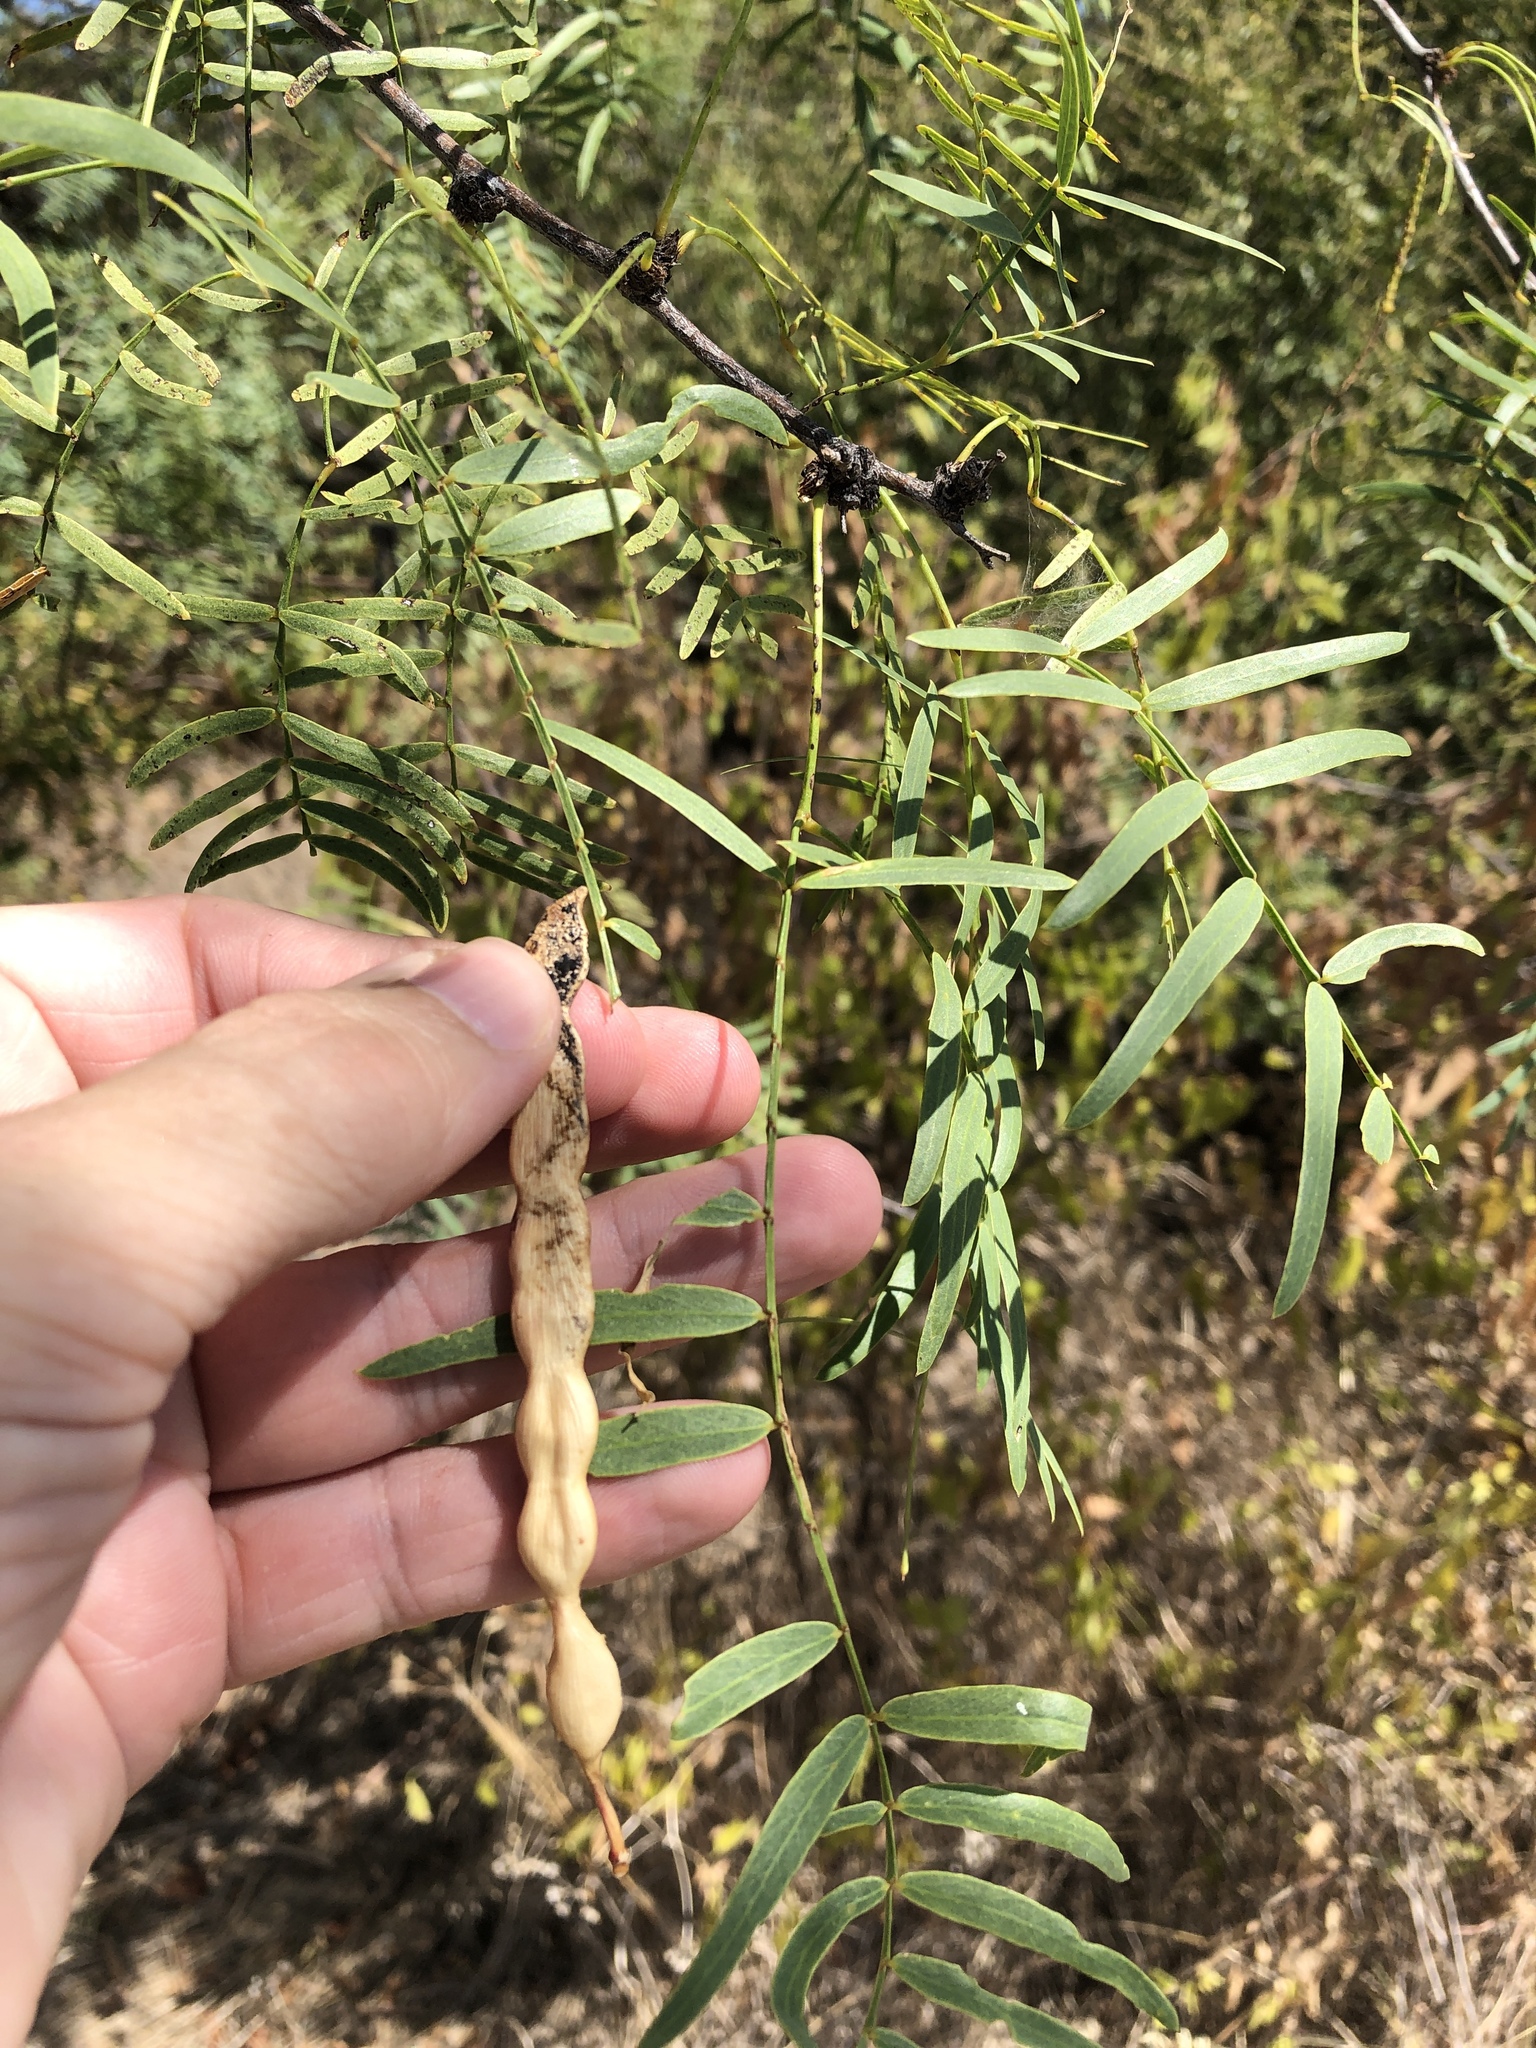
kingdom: Plantae
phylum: Tracheophyta
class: Magnoliopsida
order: Fabales
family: Fabaceae
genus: Prosopis
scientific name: Prosopis glandulosa
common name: Honey mesquite
